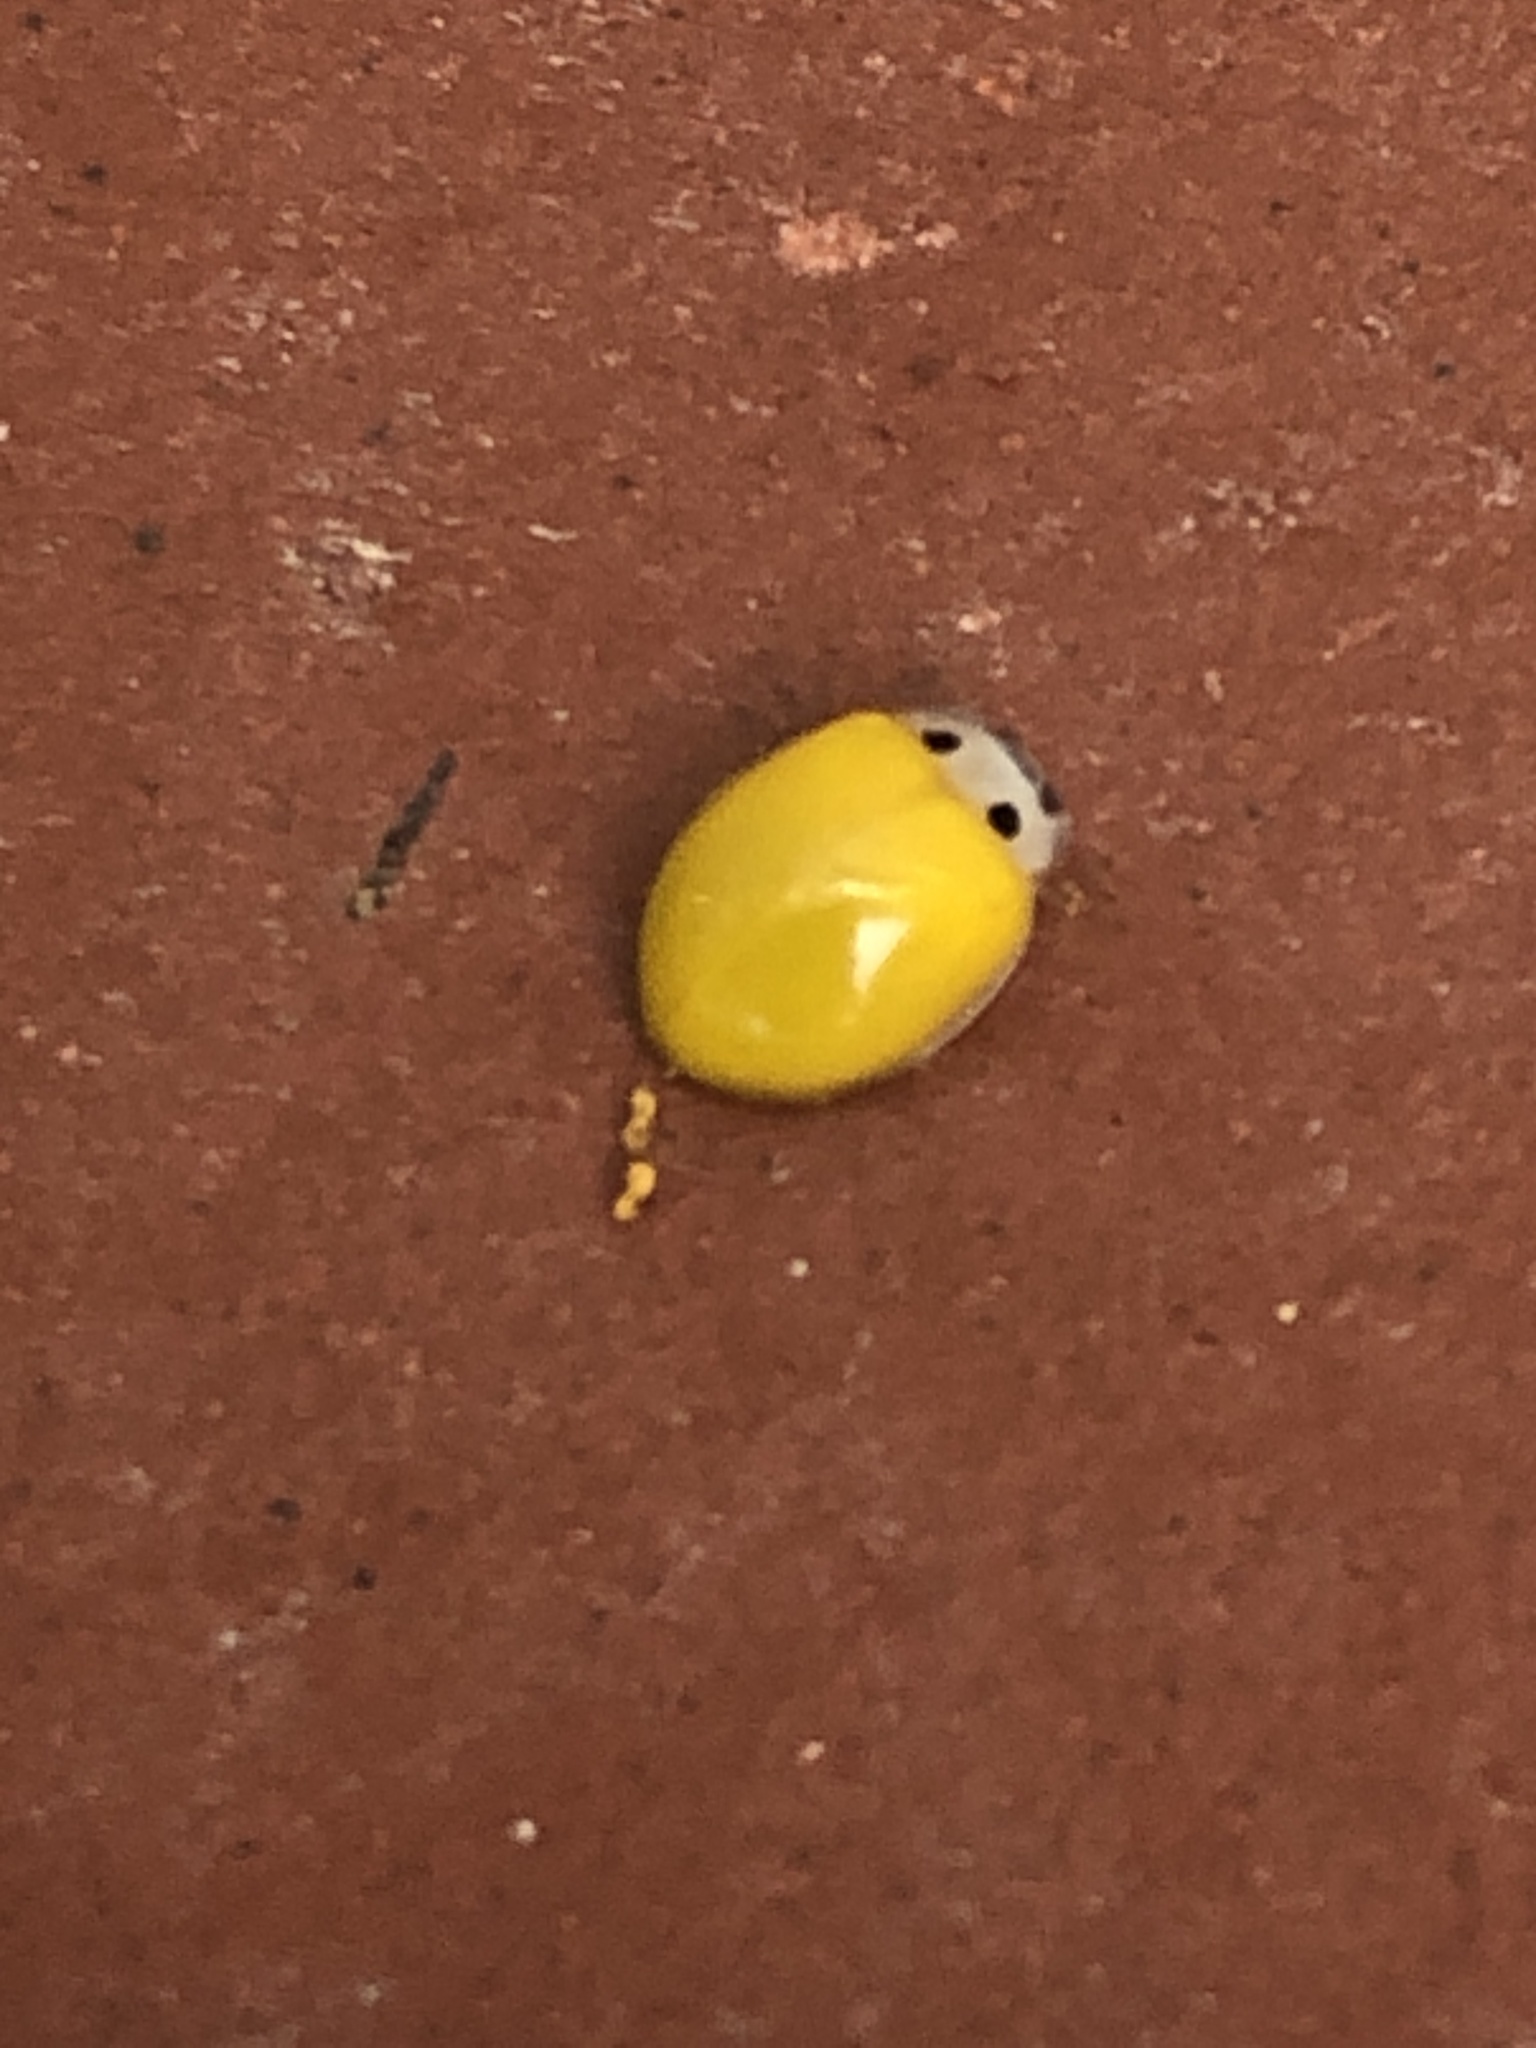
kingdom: Animalia
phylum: Arthropoda
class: Insecta
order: Coleoptera
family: Coccinellidae
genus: Illeis
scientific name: Illeis koebelei
